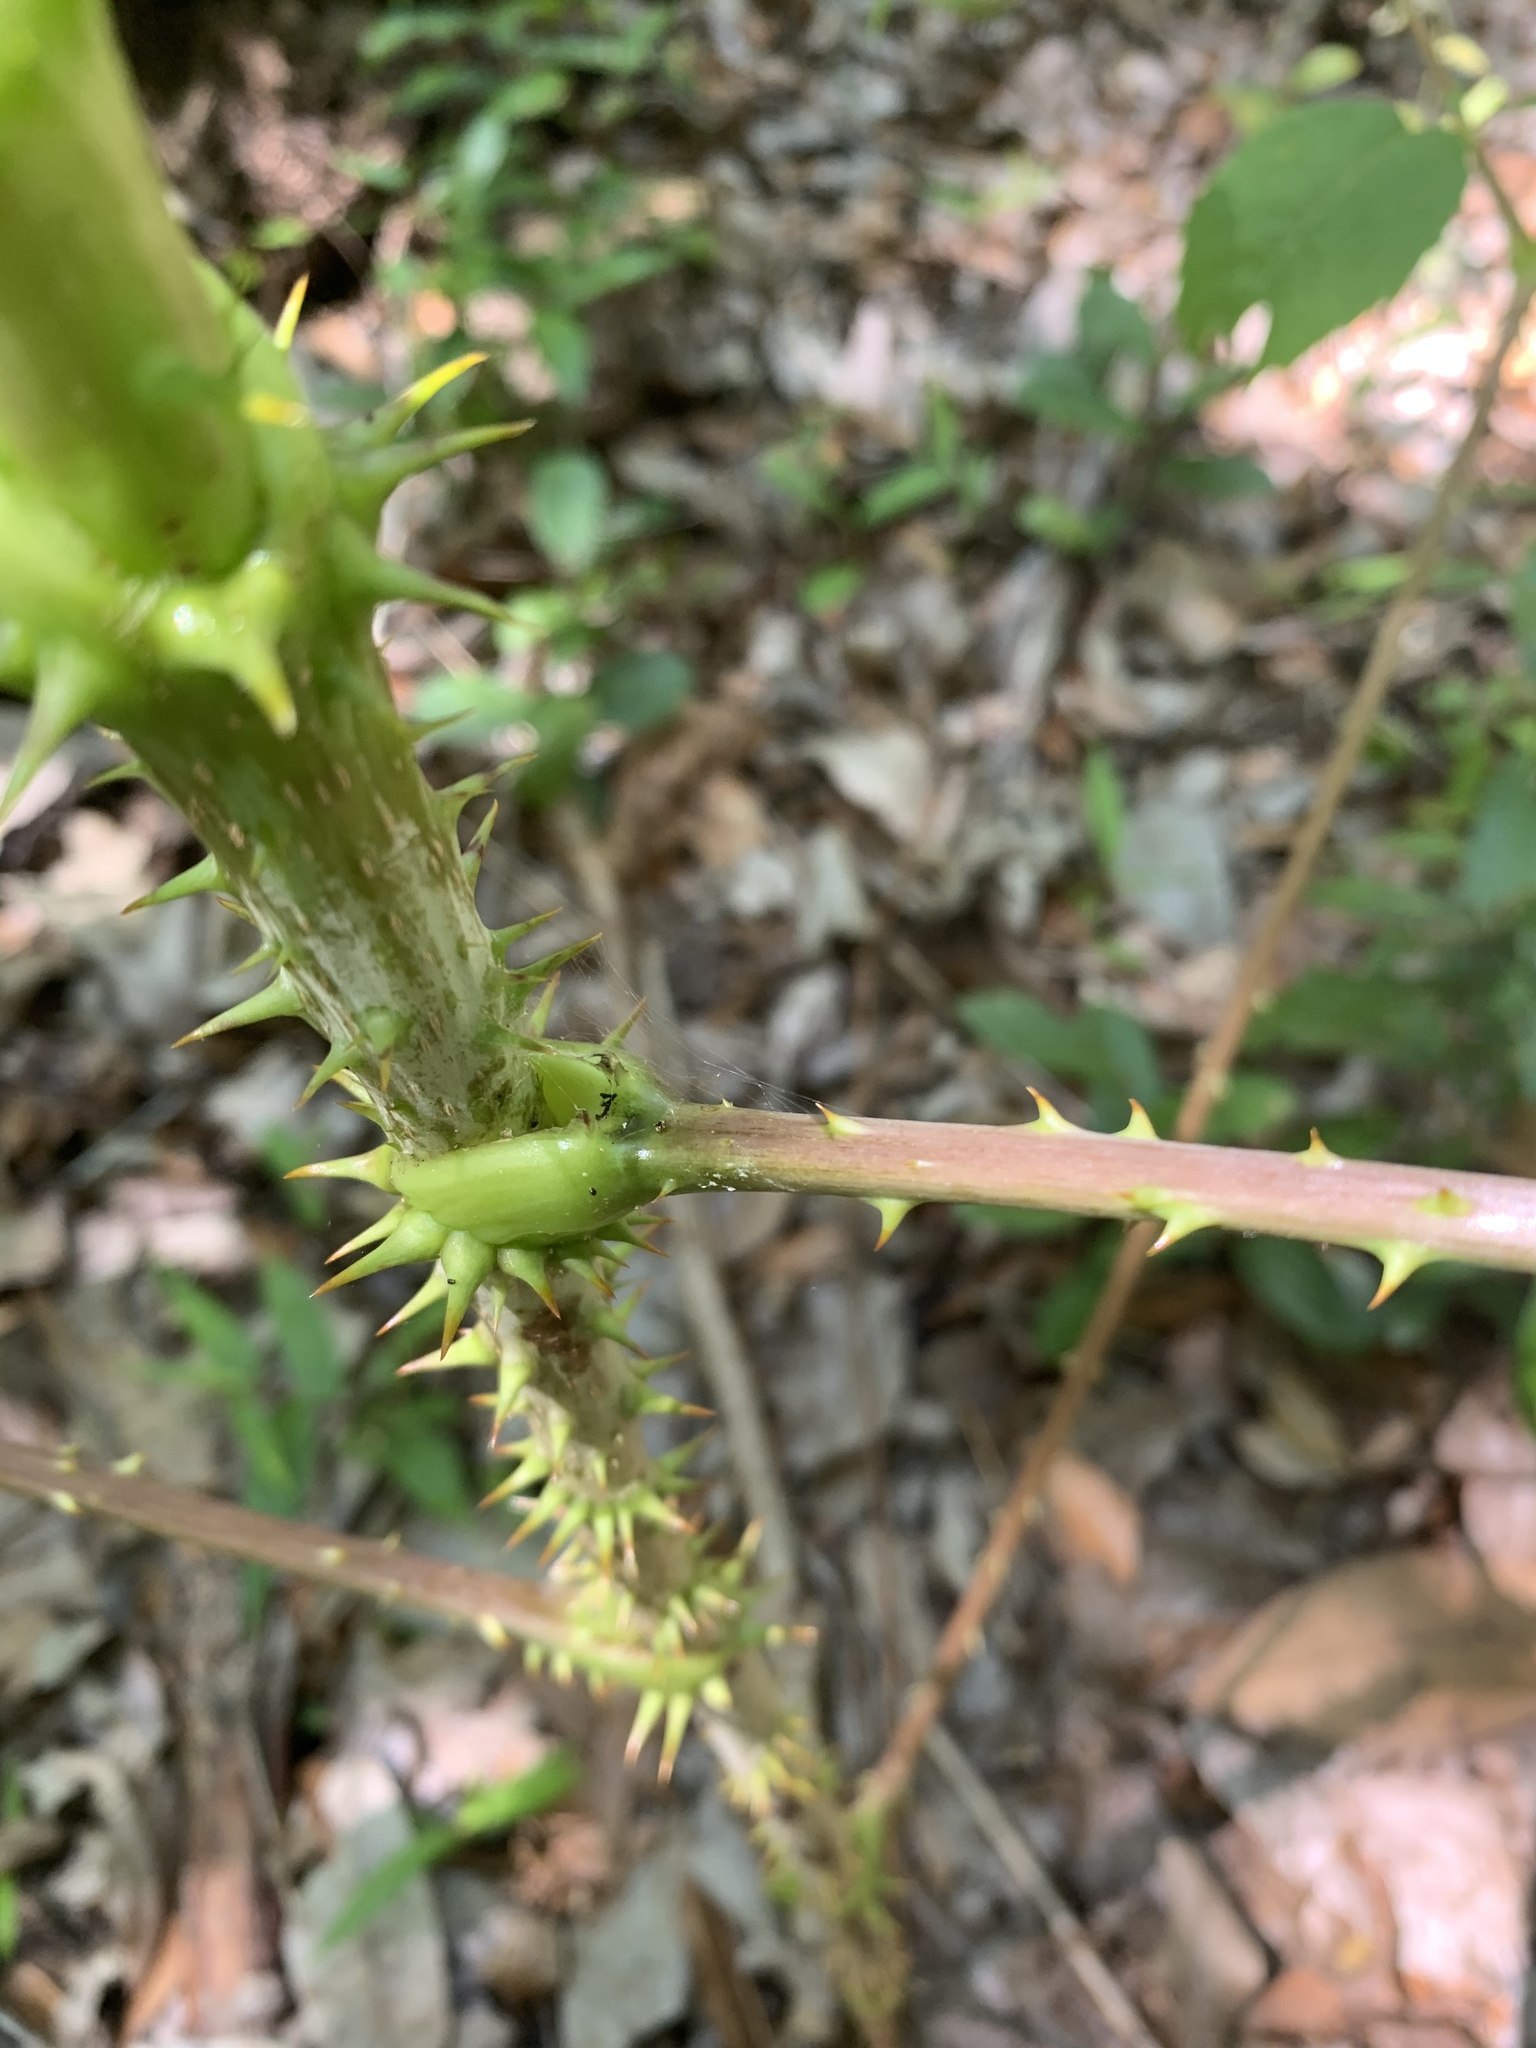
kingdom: Plantae
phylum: Tracheophyta
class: Magnoliopsida
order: Apiales
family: Araliaceae
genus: Aralia
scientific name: Aralia spinosa
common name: Hercules'-club
